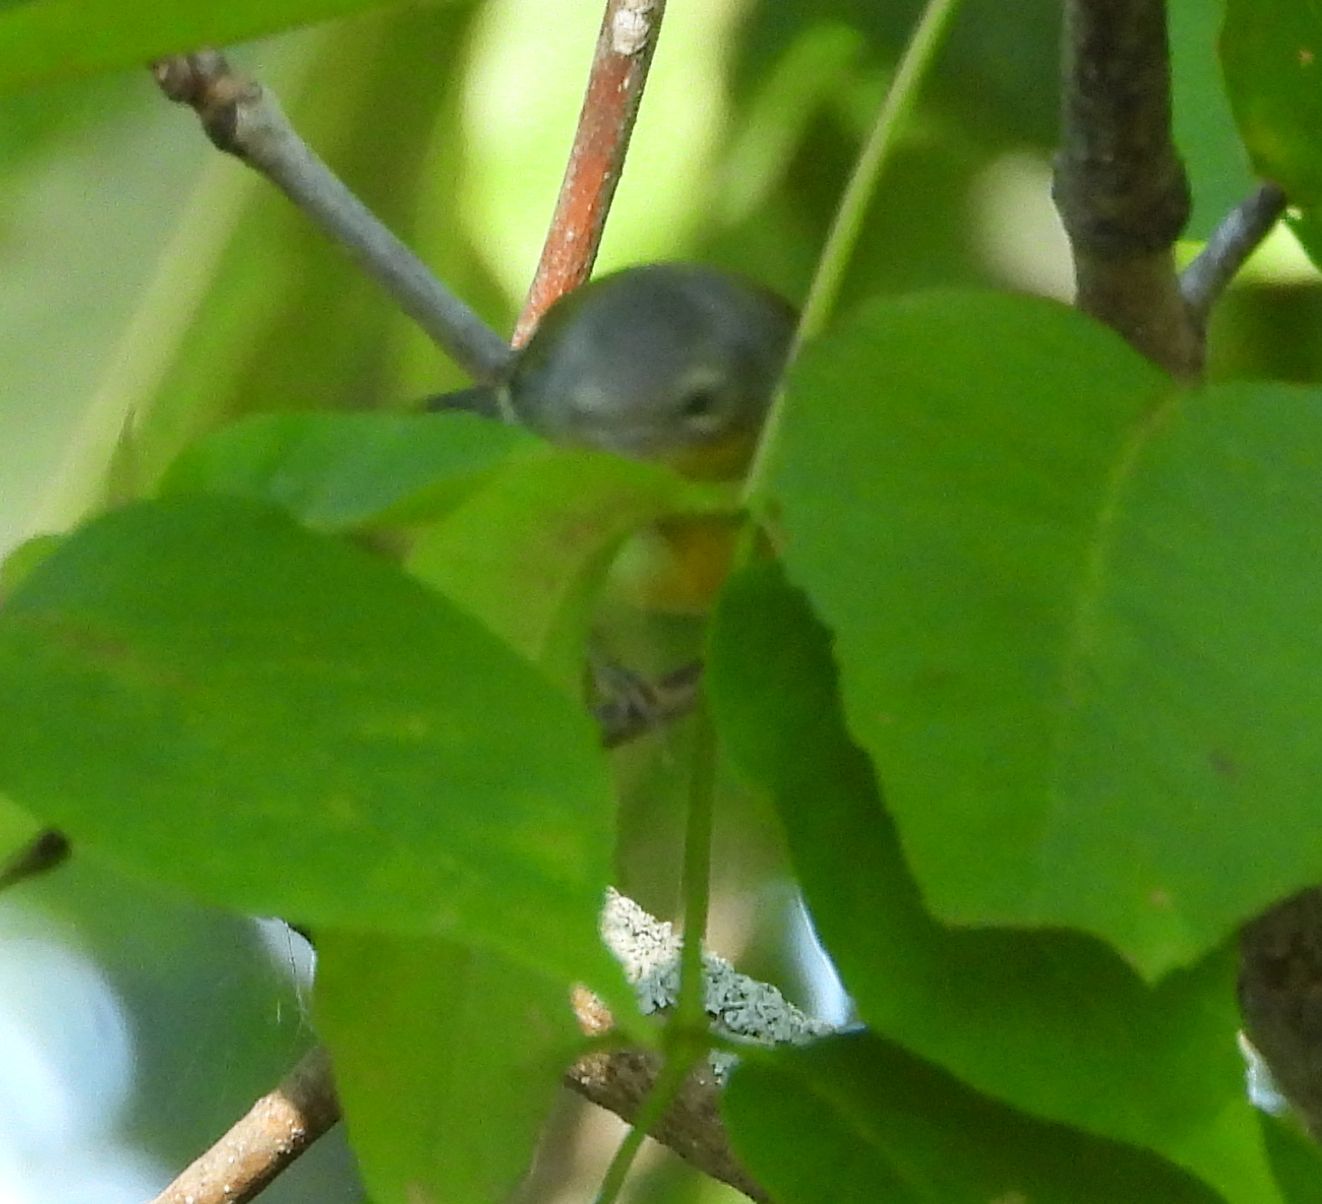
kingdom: Animalia
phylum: Chordata
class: Aves
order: Passeriformes
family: Parulidae
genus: Setophaga
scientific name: Setophaga magnolia
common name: Magnolia warbler
